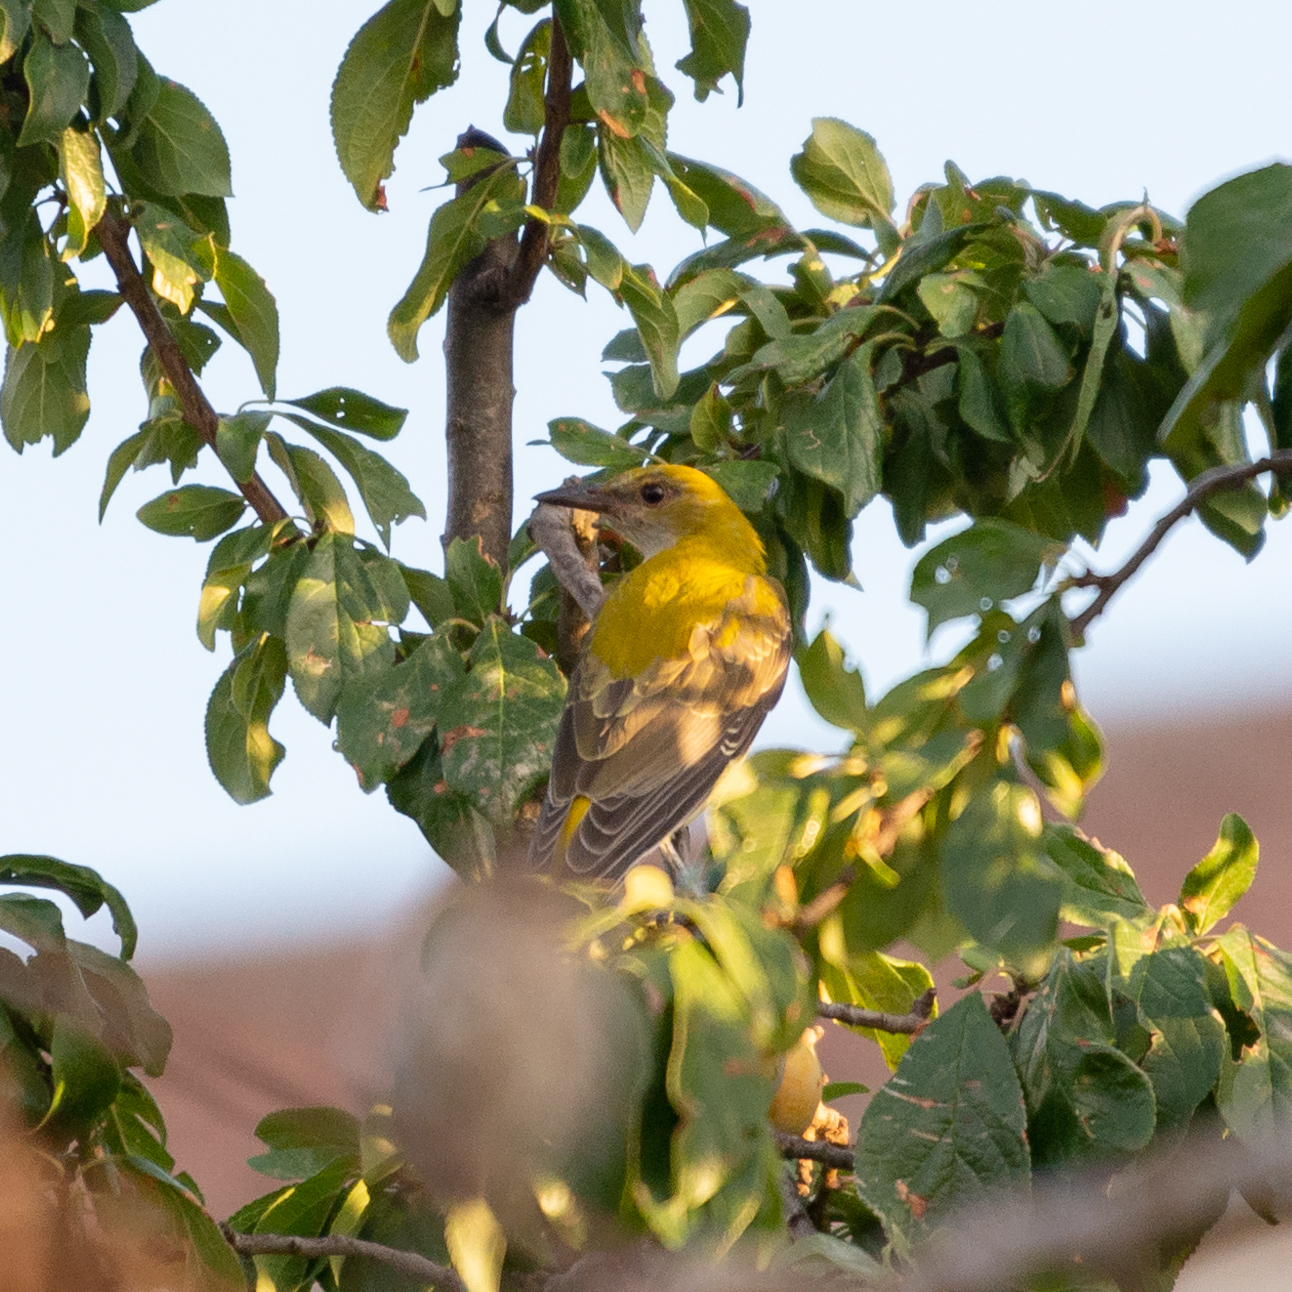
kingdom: Animalia
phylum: Chordata
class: Aves
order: Passeriformes
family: Oriolidae
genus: Oriolus
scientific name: Oriolus oriolus
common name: Eurasian golden oriole
